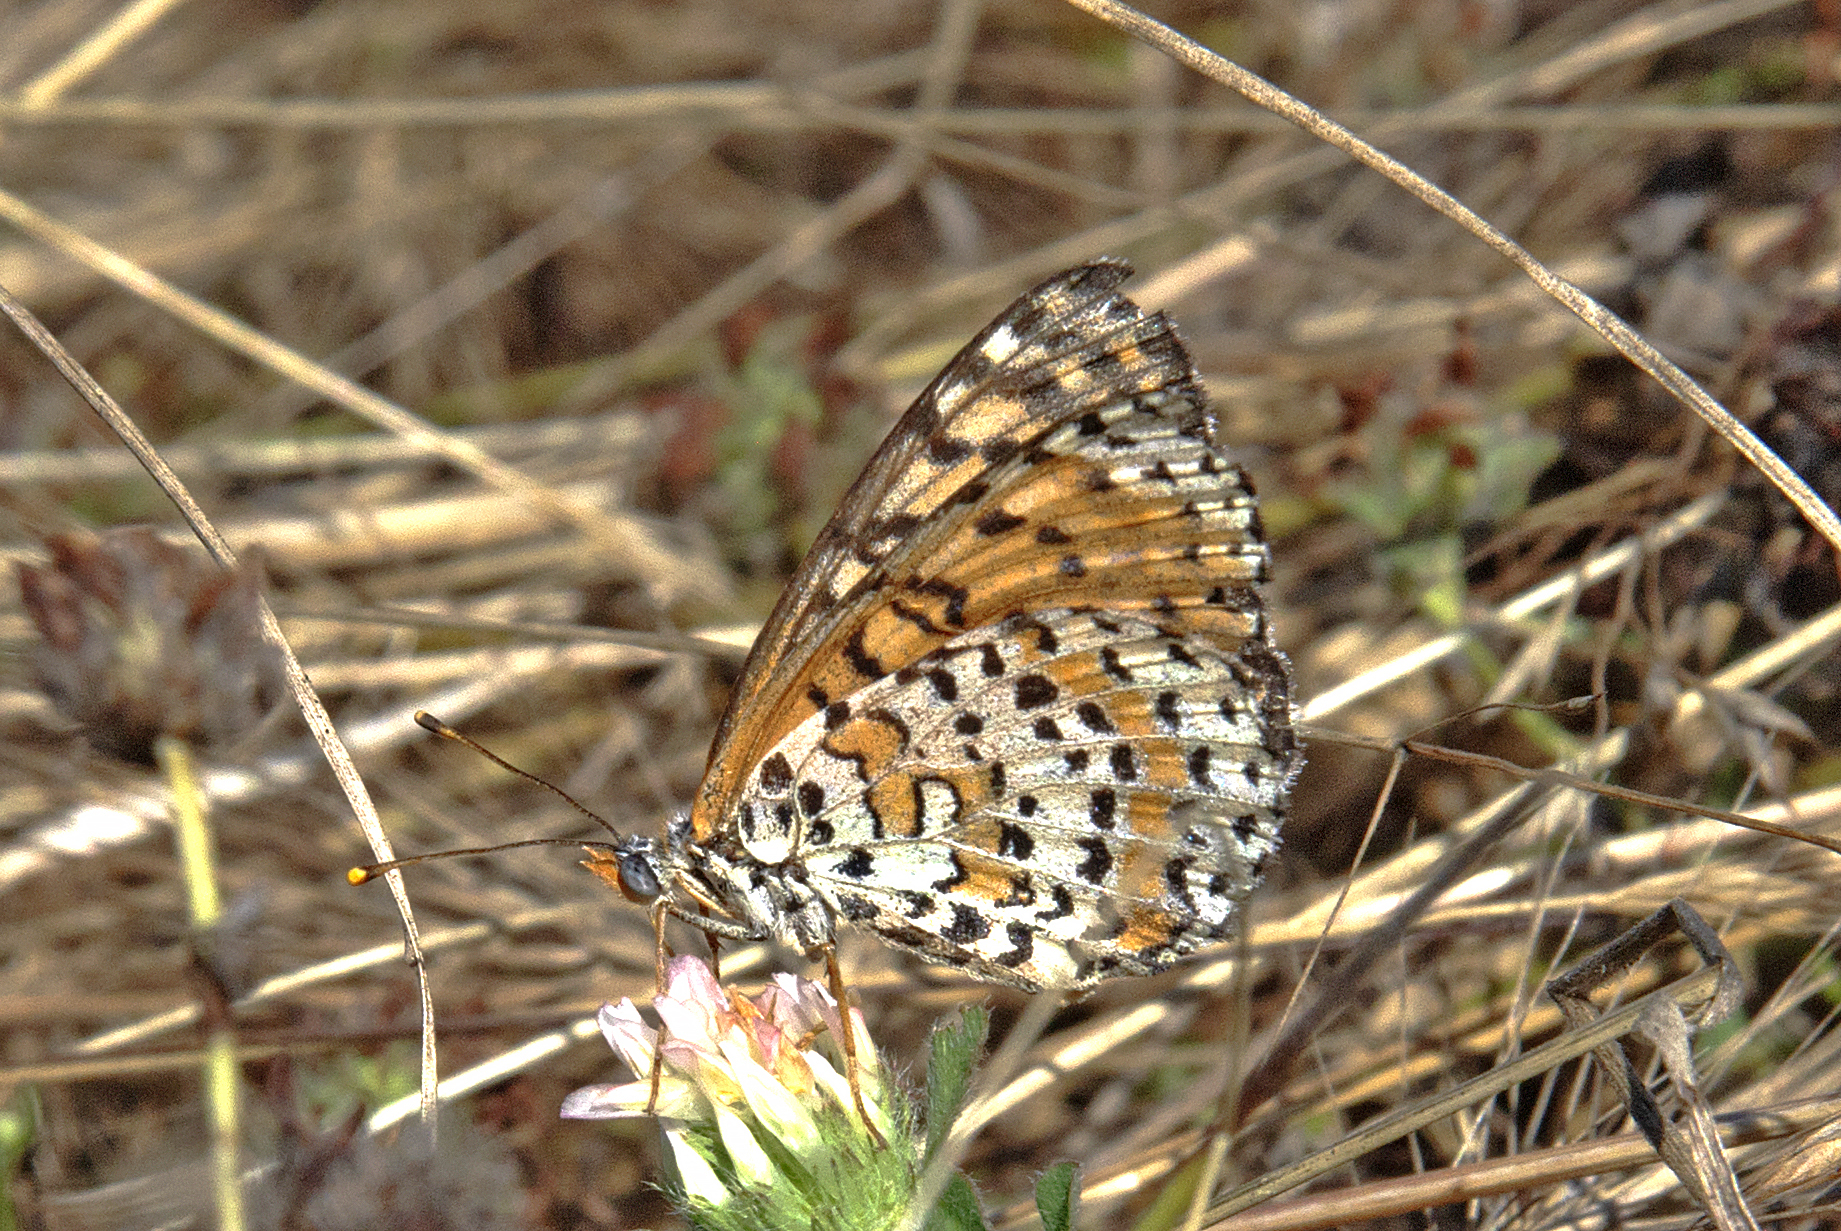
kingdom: Animalia
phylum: Arthropoda
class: Insecta
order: Lepidoptera
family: Nymphalidae
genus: Melitaea
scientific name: Melitaea didyma
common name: Spotted fritillary
